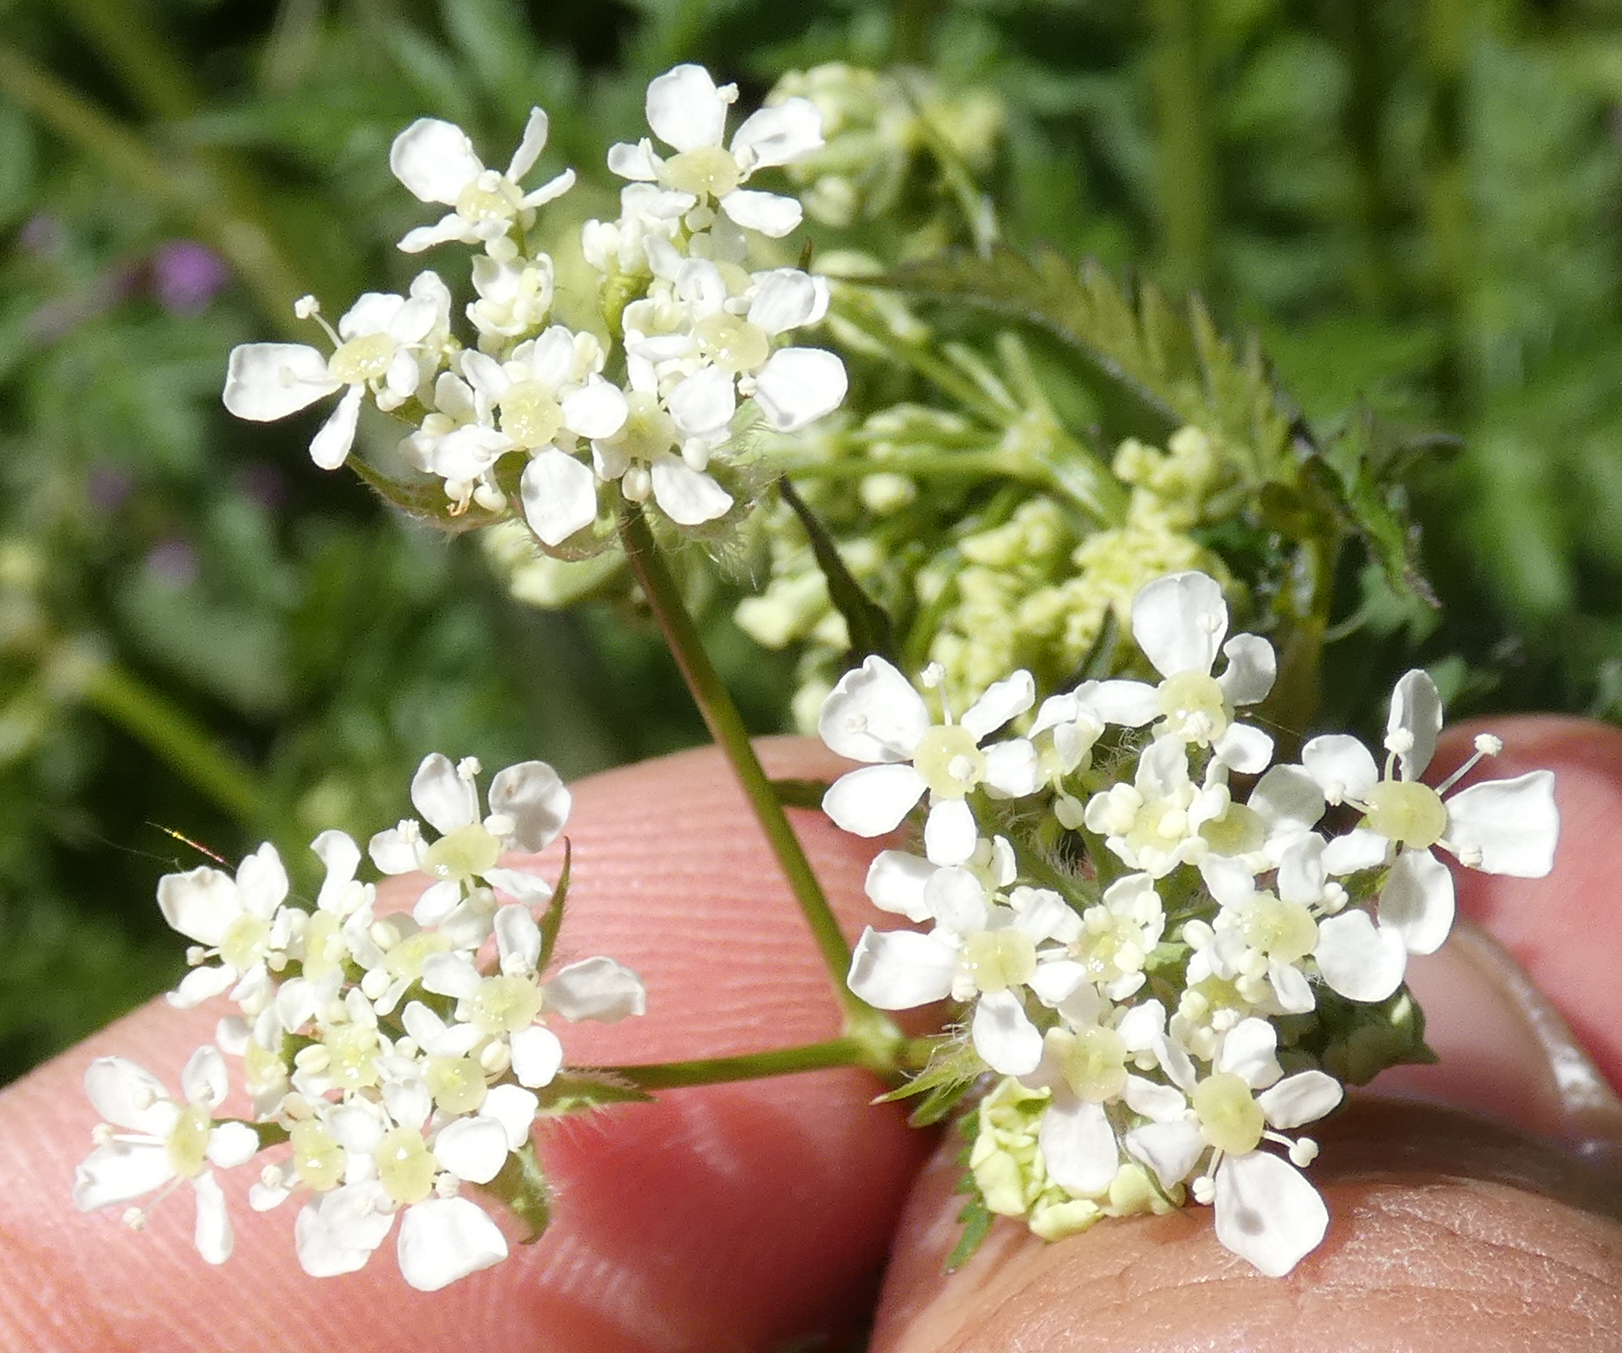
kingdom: Plantae
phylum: Tracheophyta
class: Magnoliopsida
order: Apiales
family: Apiaceae
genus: Anthriscus
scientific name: Anthriscus sylvestris
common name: Cow parsley
